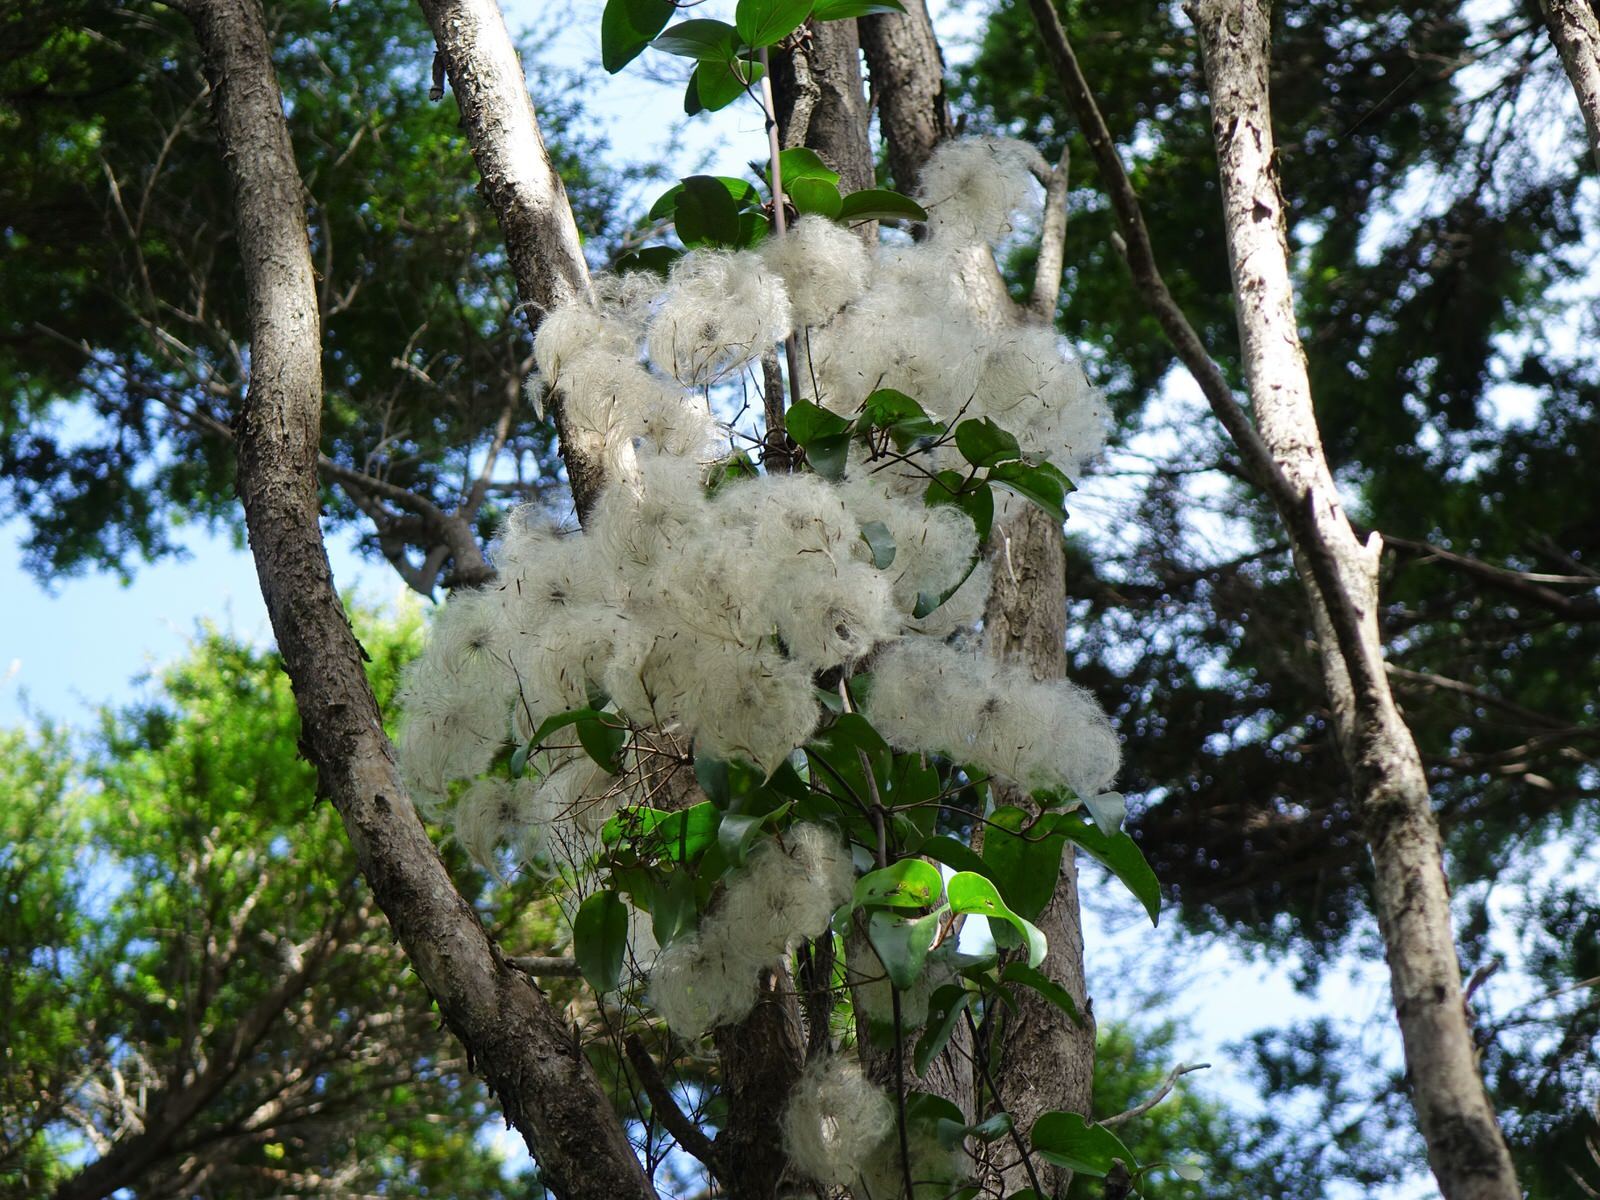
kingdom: Plantae
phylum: Tracheophyta
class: Magnoliopsida
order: Ranunculales
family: Ranunculaceae
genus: Clematis
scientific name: Clematis paniculata
